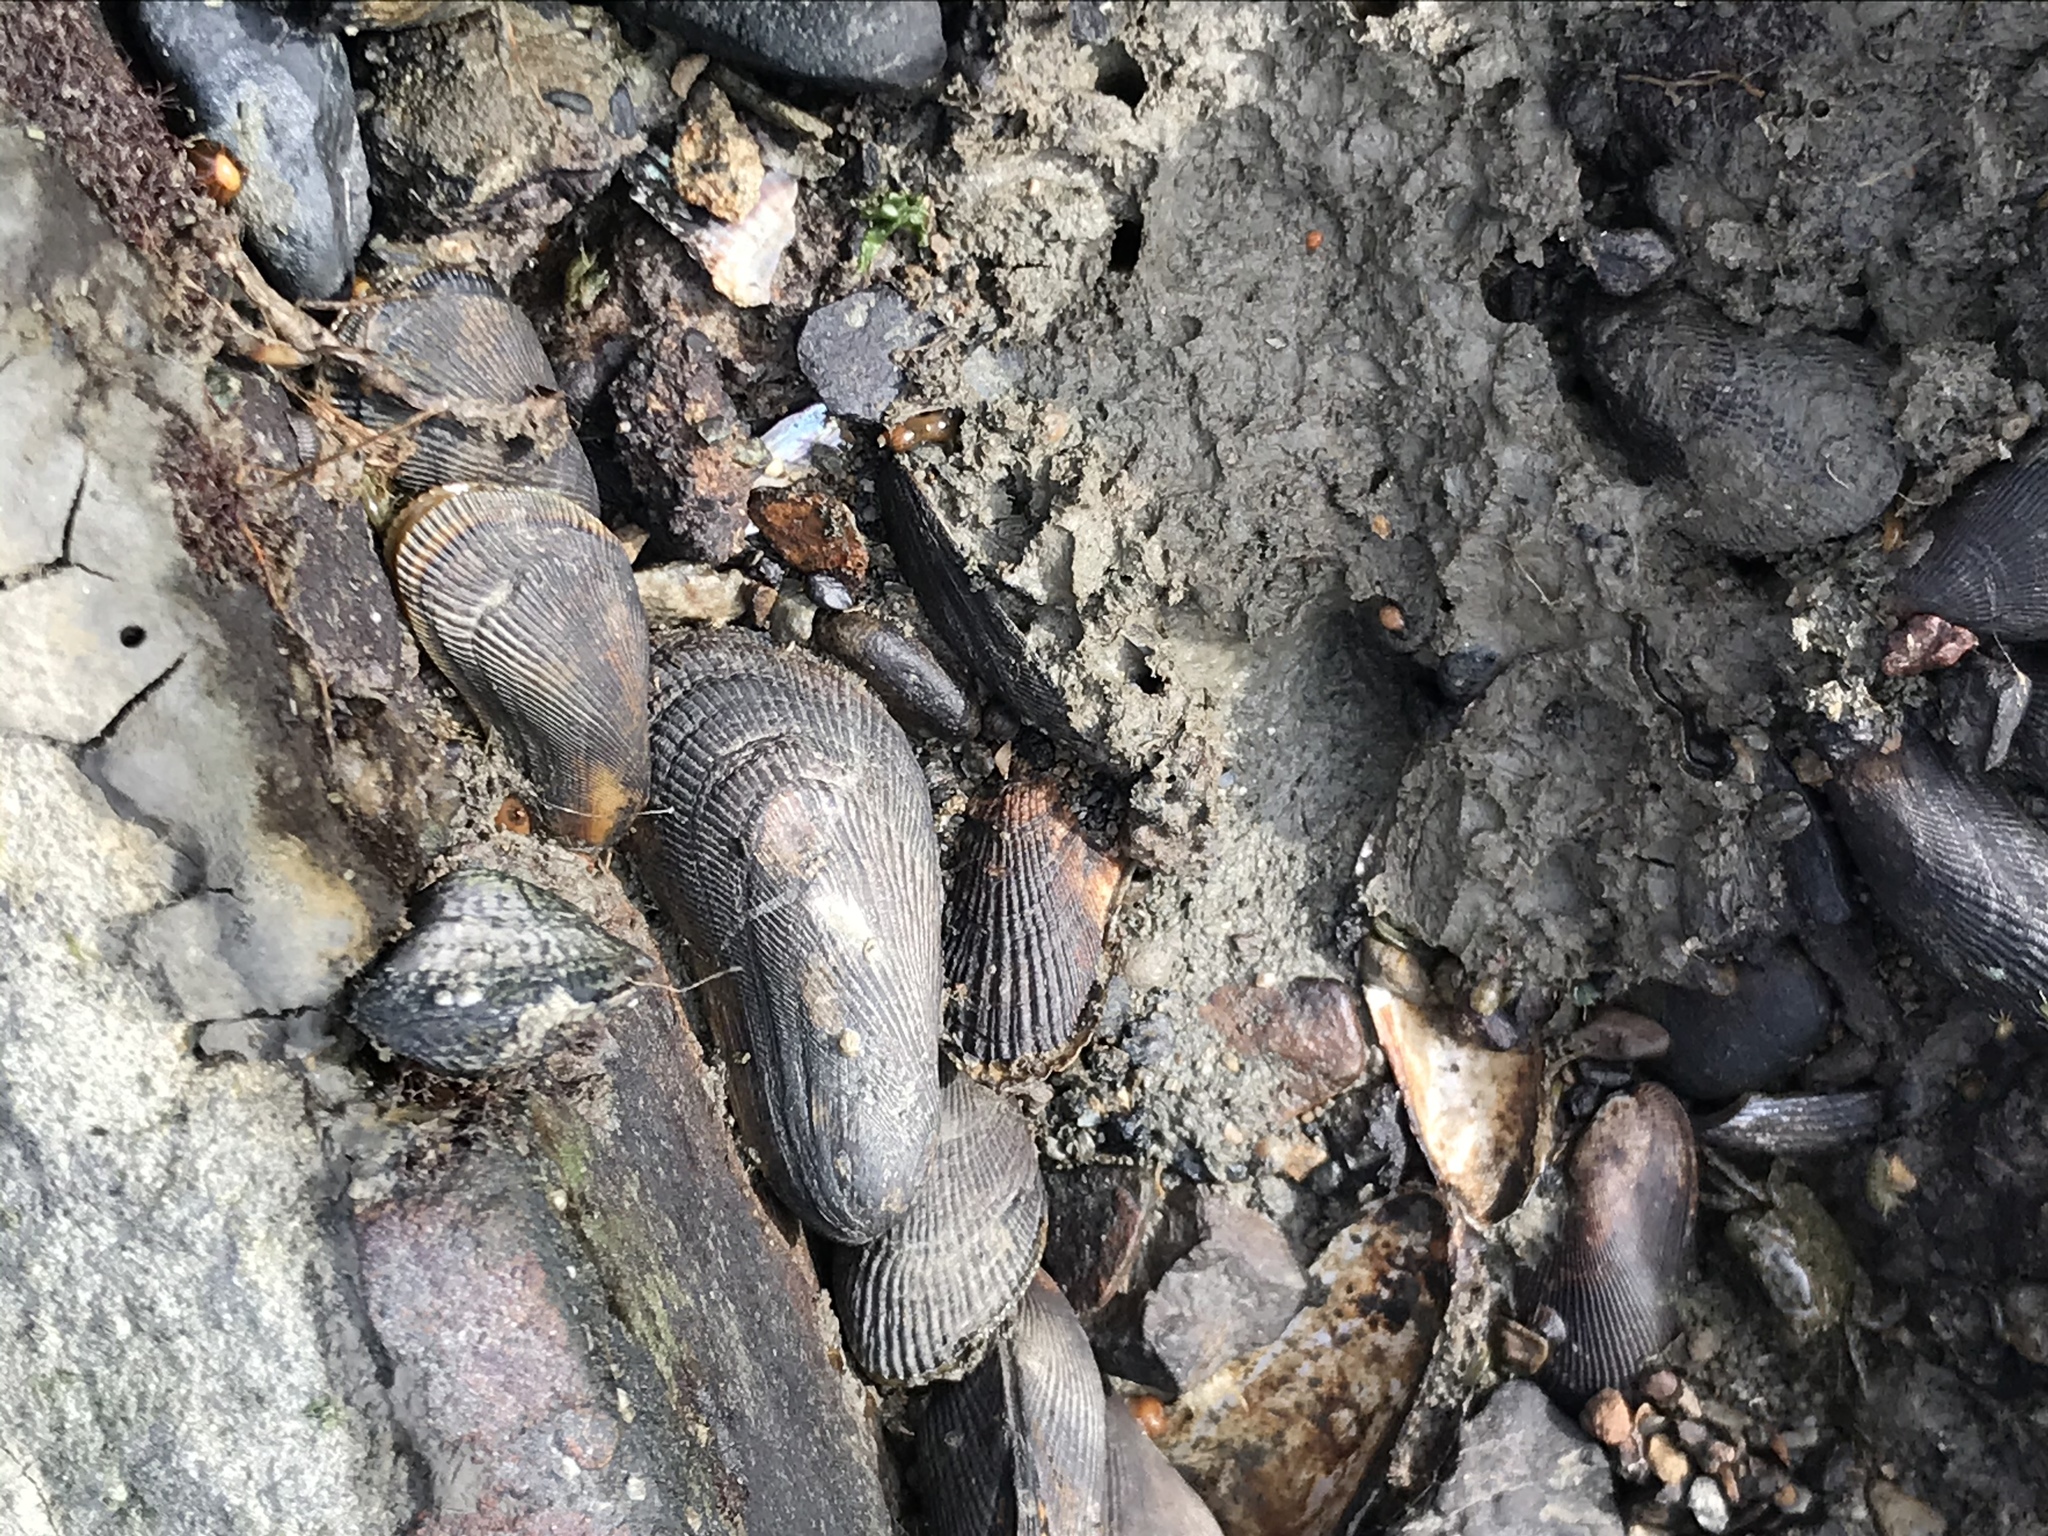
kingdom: Animalia
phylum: Mollusca
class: Bivalvia
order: Mytilida
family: Mytilidae
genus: Geukensia
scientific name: Geukensia demissa
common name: Ribbed mussel
